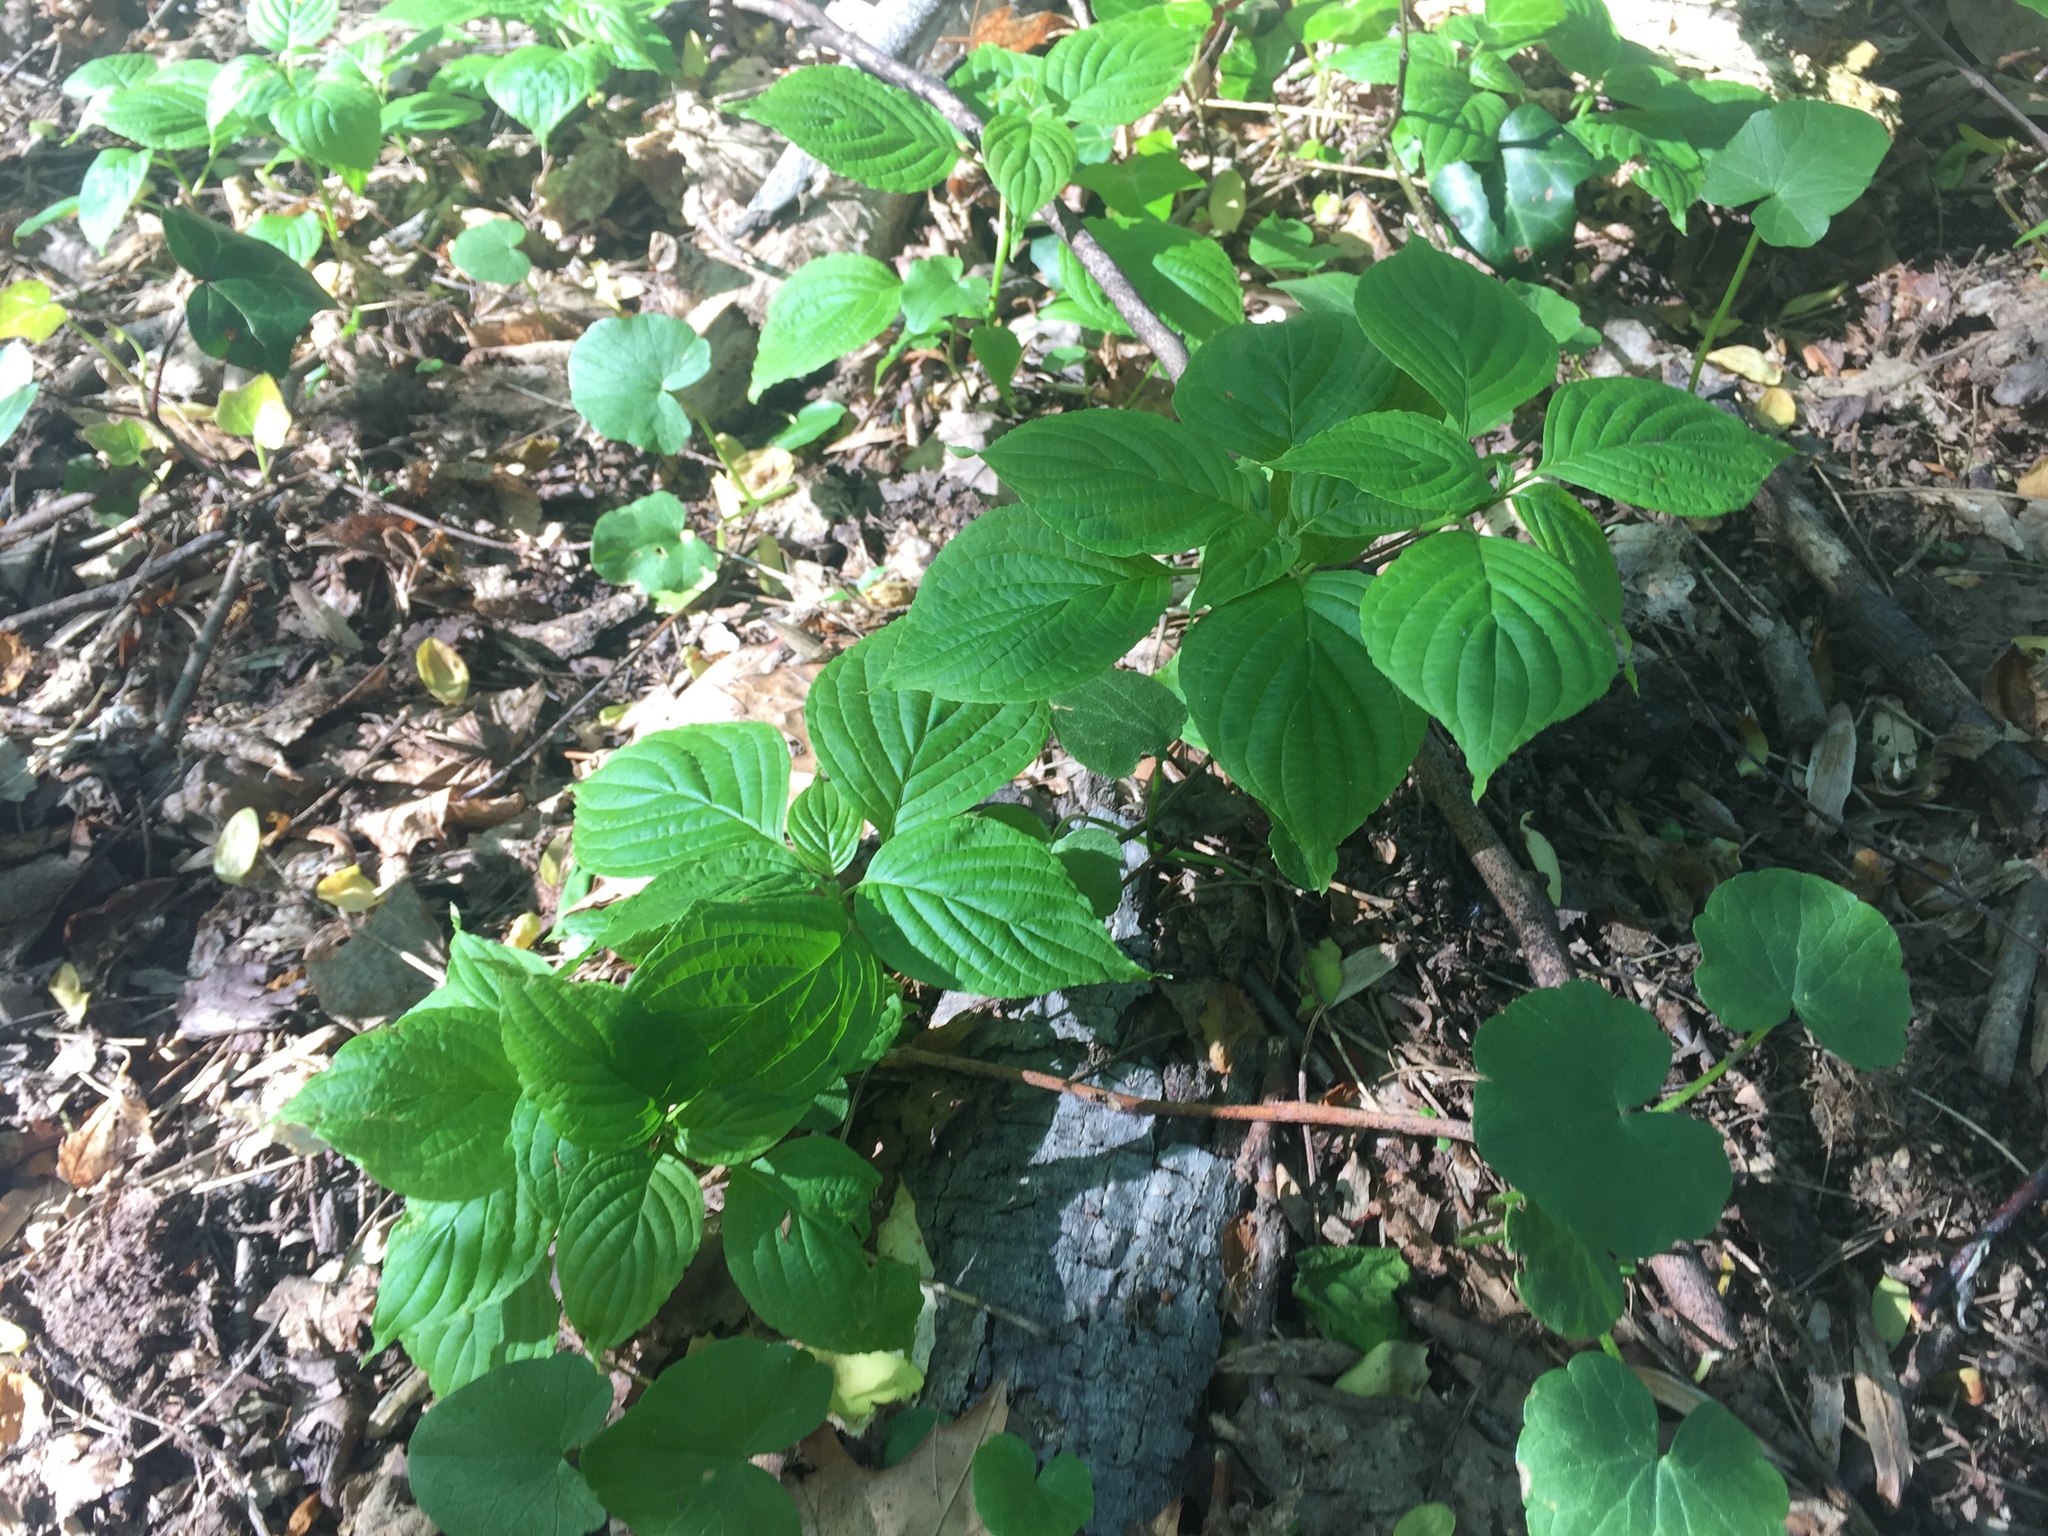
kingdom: Plantae
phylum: Tracheophyta
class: Magnoliopsida
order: Cornales
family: Cornaceae
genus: Cornus
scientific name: Cornus alternifolia
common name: Pagoda dogwood
